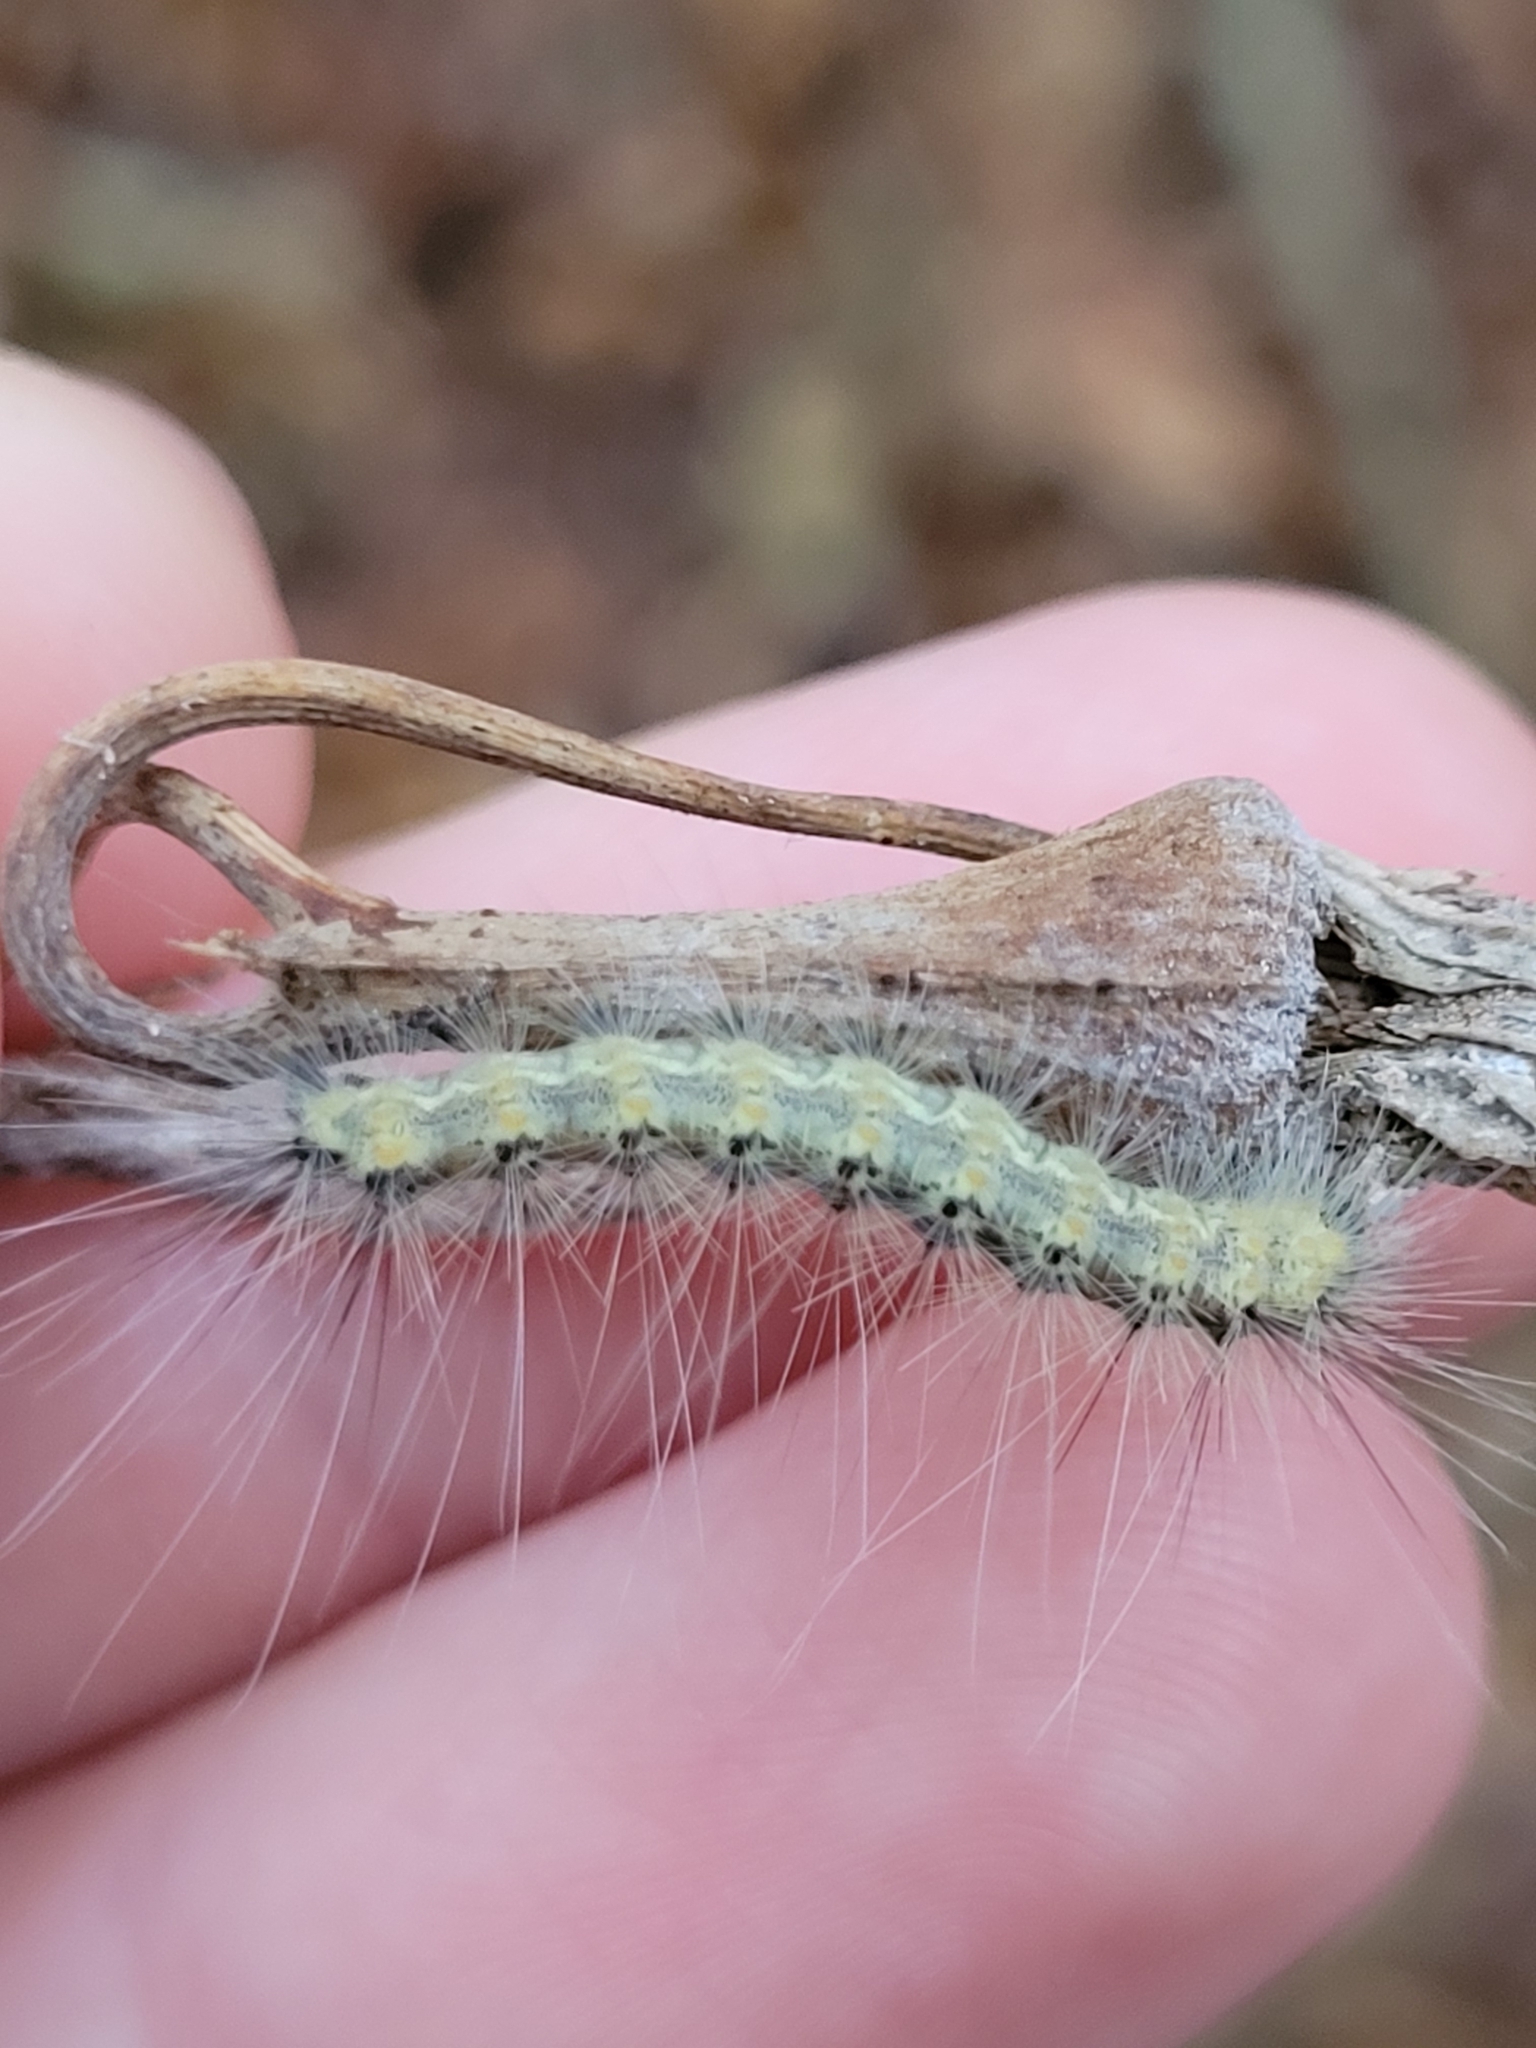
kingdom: Animalia
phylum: Arthropoda
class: Insecta
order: Lepidoptera
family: Erebidae
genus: Hyphantria
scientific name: Hyphantria cunea
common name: American white moth
